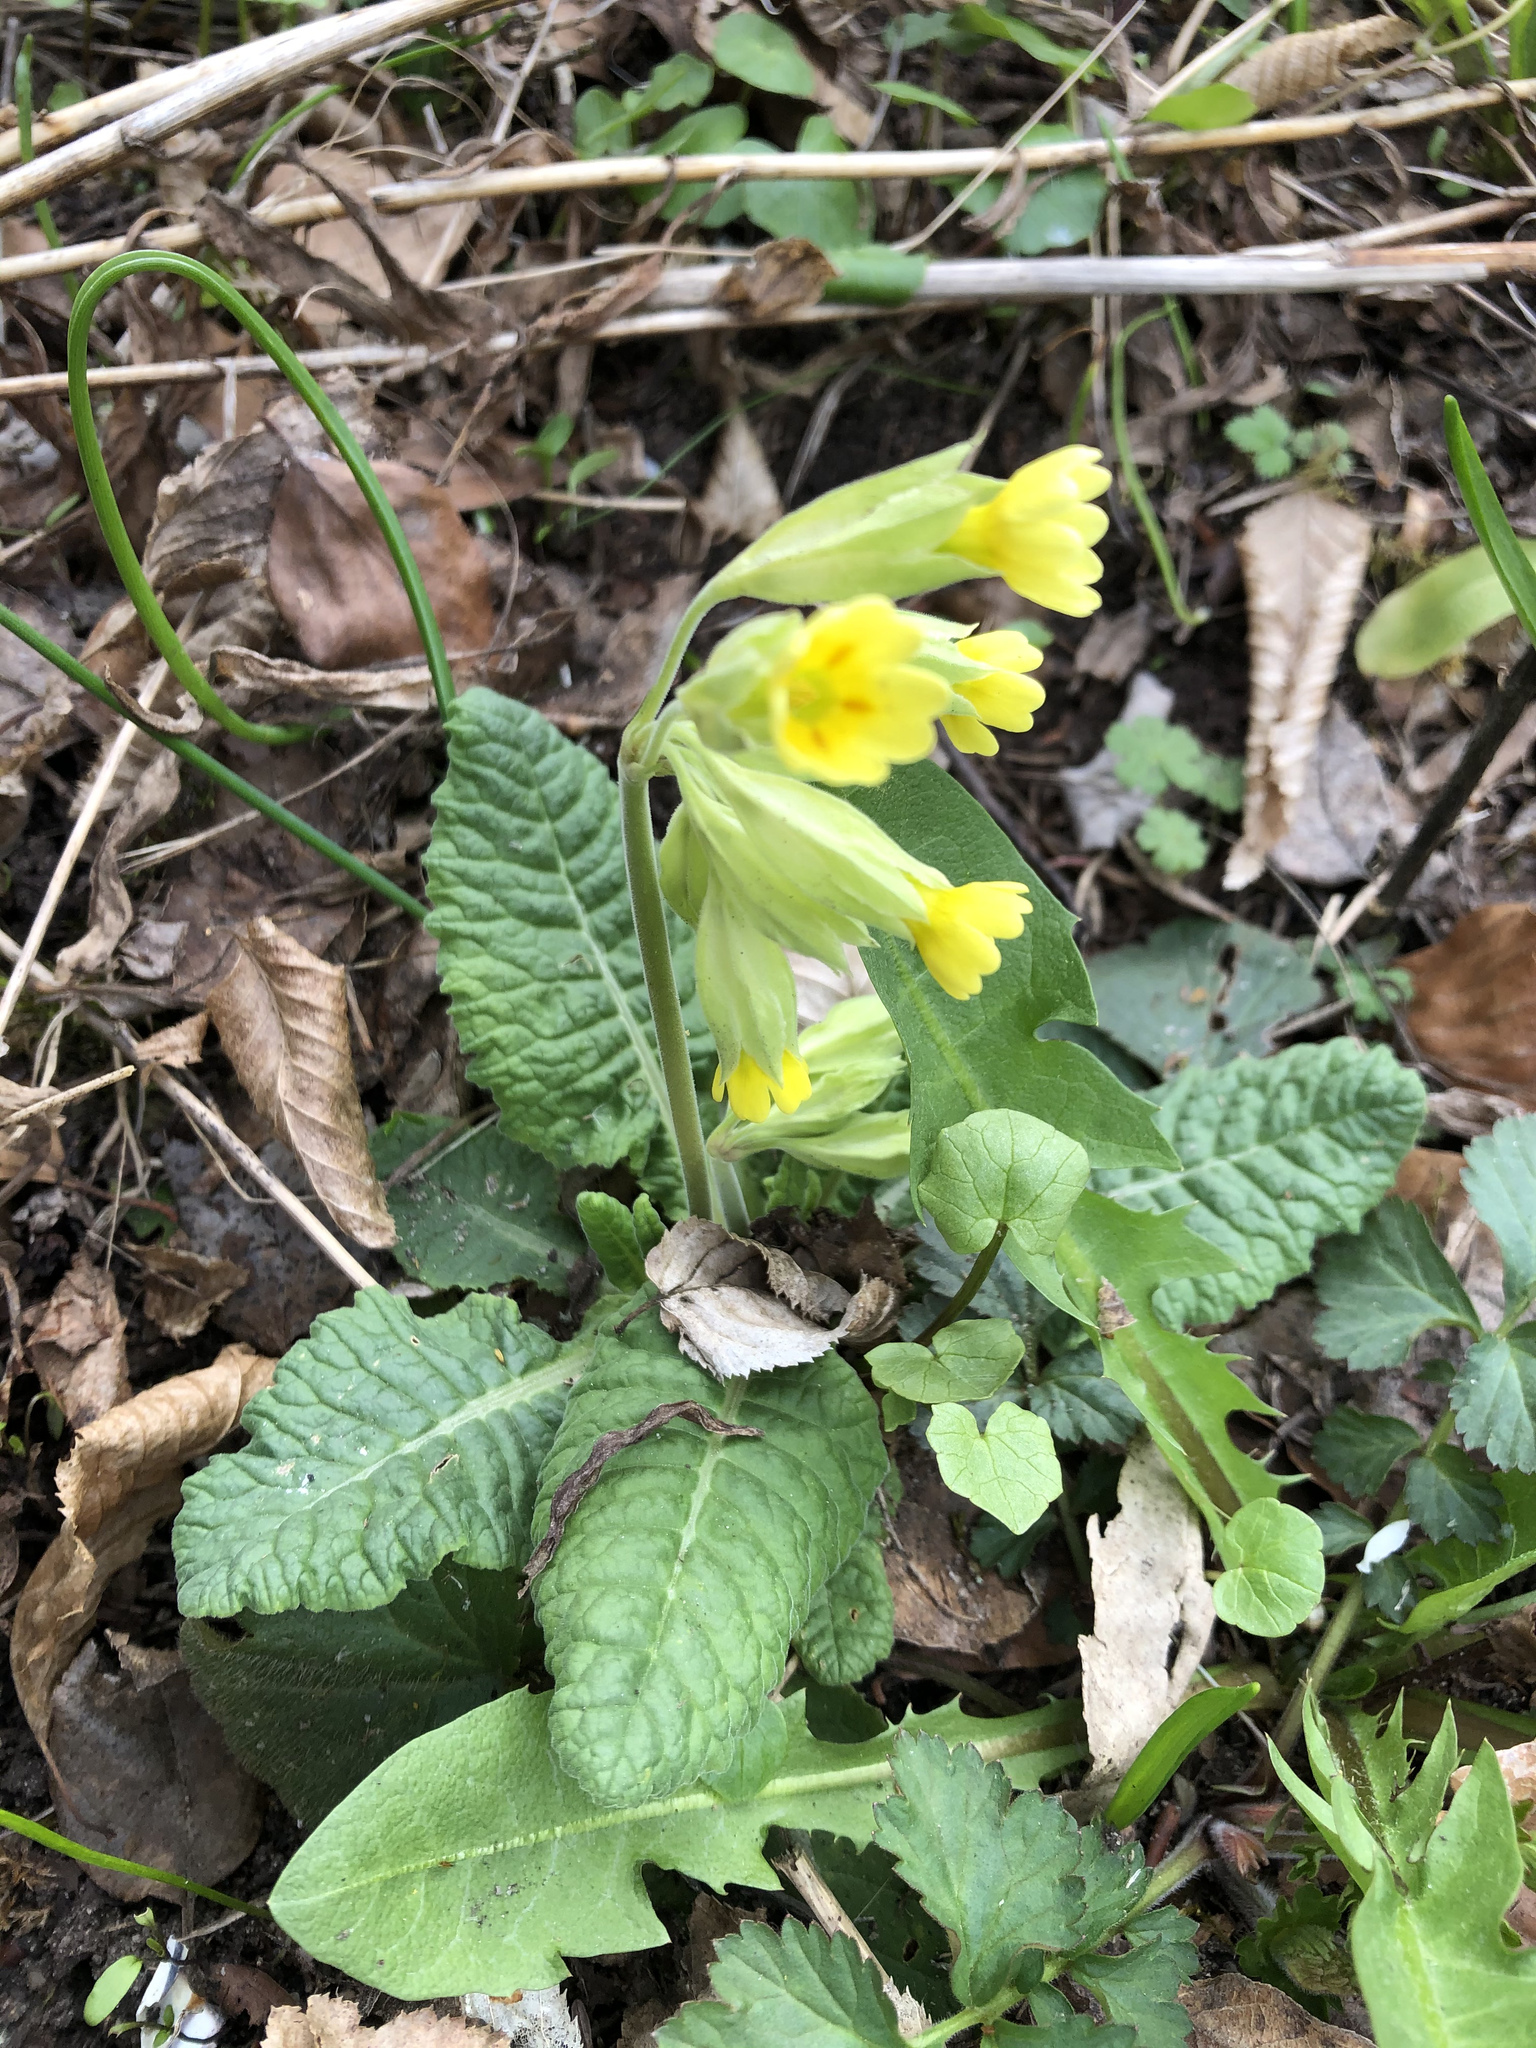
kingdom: Plantae
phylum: Tracheophyta
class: Magnoliopsida
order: Ericales
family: Primulaceae
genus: Primula
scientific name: Primula veris
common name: Cowslip
